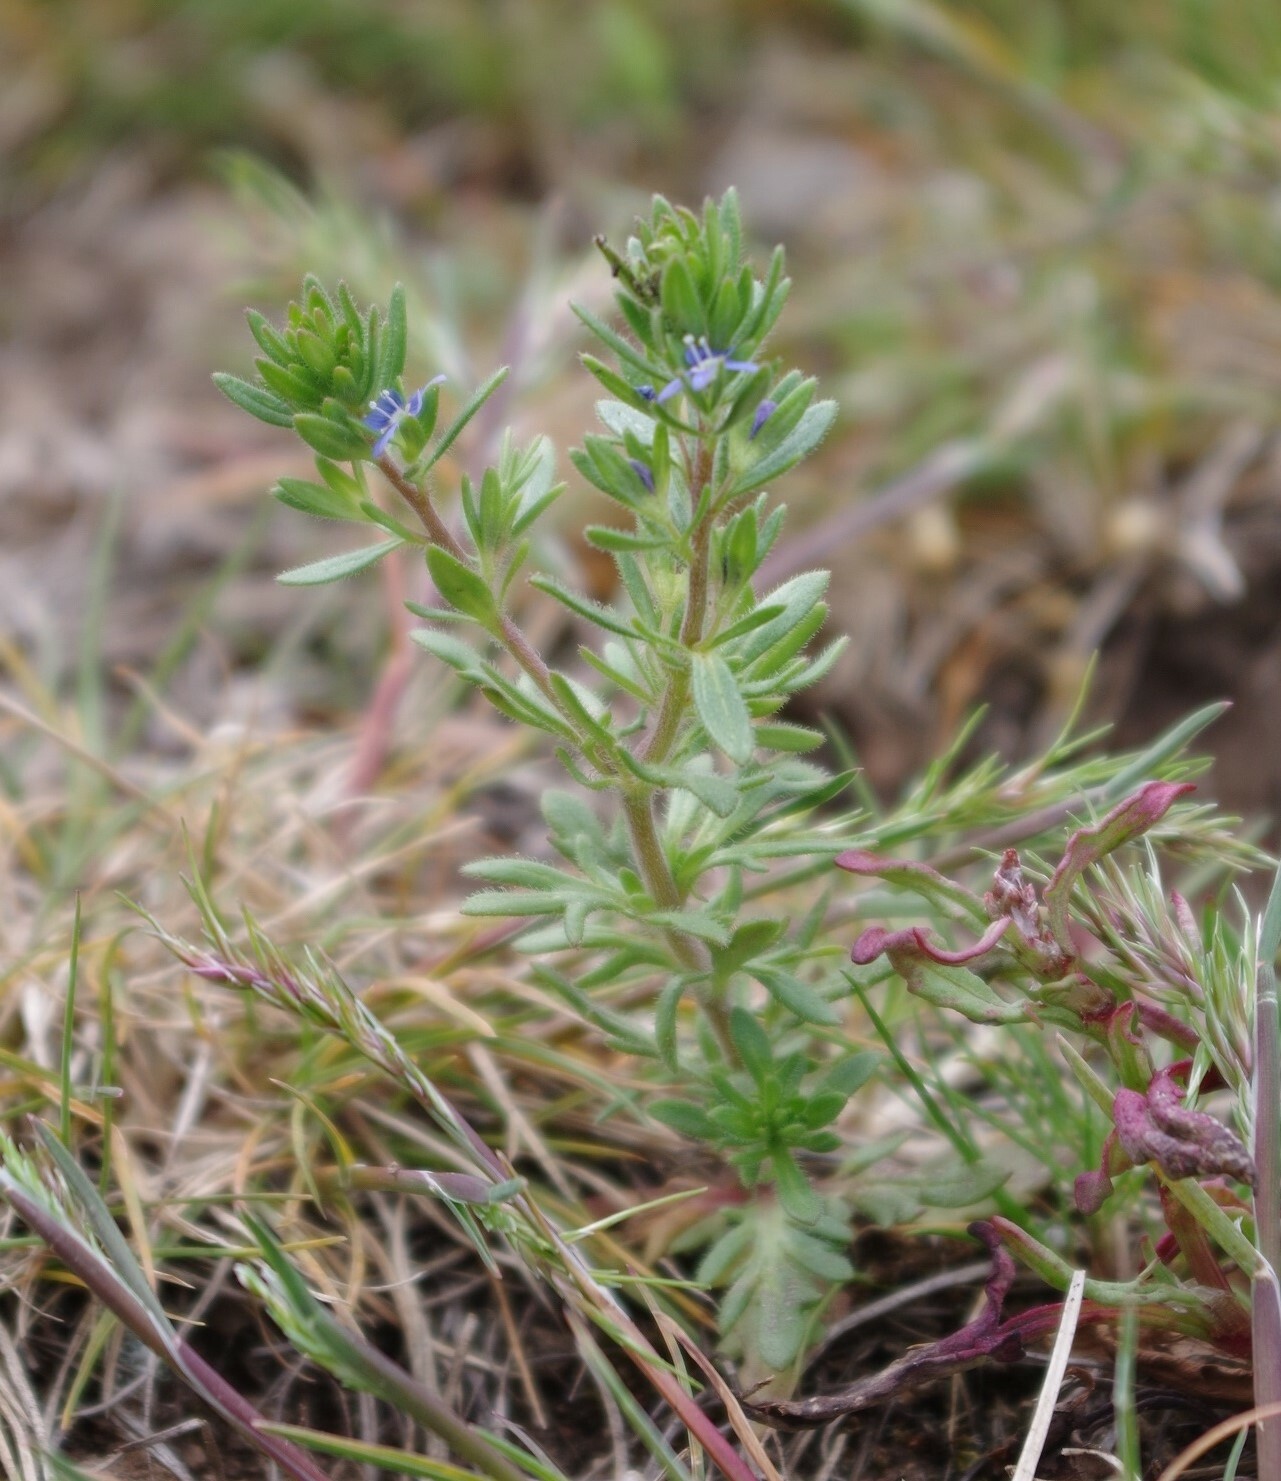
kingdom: Plantae
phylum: Tracheophyta
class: Magnoliopsida
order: Lamiales
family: Plantaginaceae
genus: Veronica
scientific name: Veronica verna
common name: Spring speedwell
